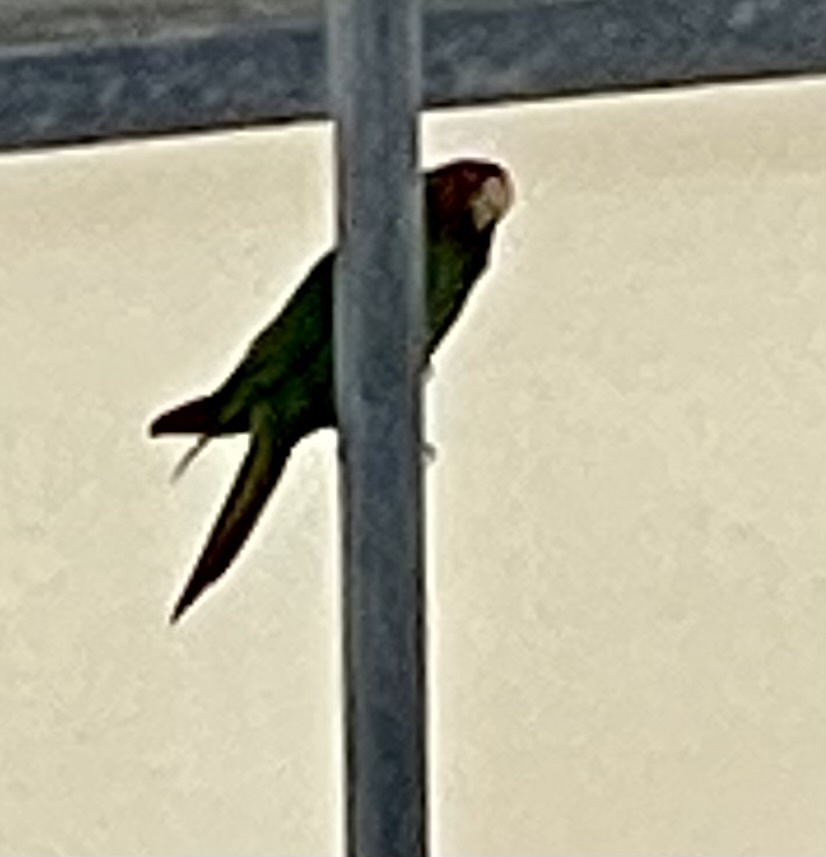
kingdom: Animalia
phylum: Chordata
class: Aves
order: Psittaciformes
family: Psittacidae
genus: Psittacara
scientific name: Psittacara
